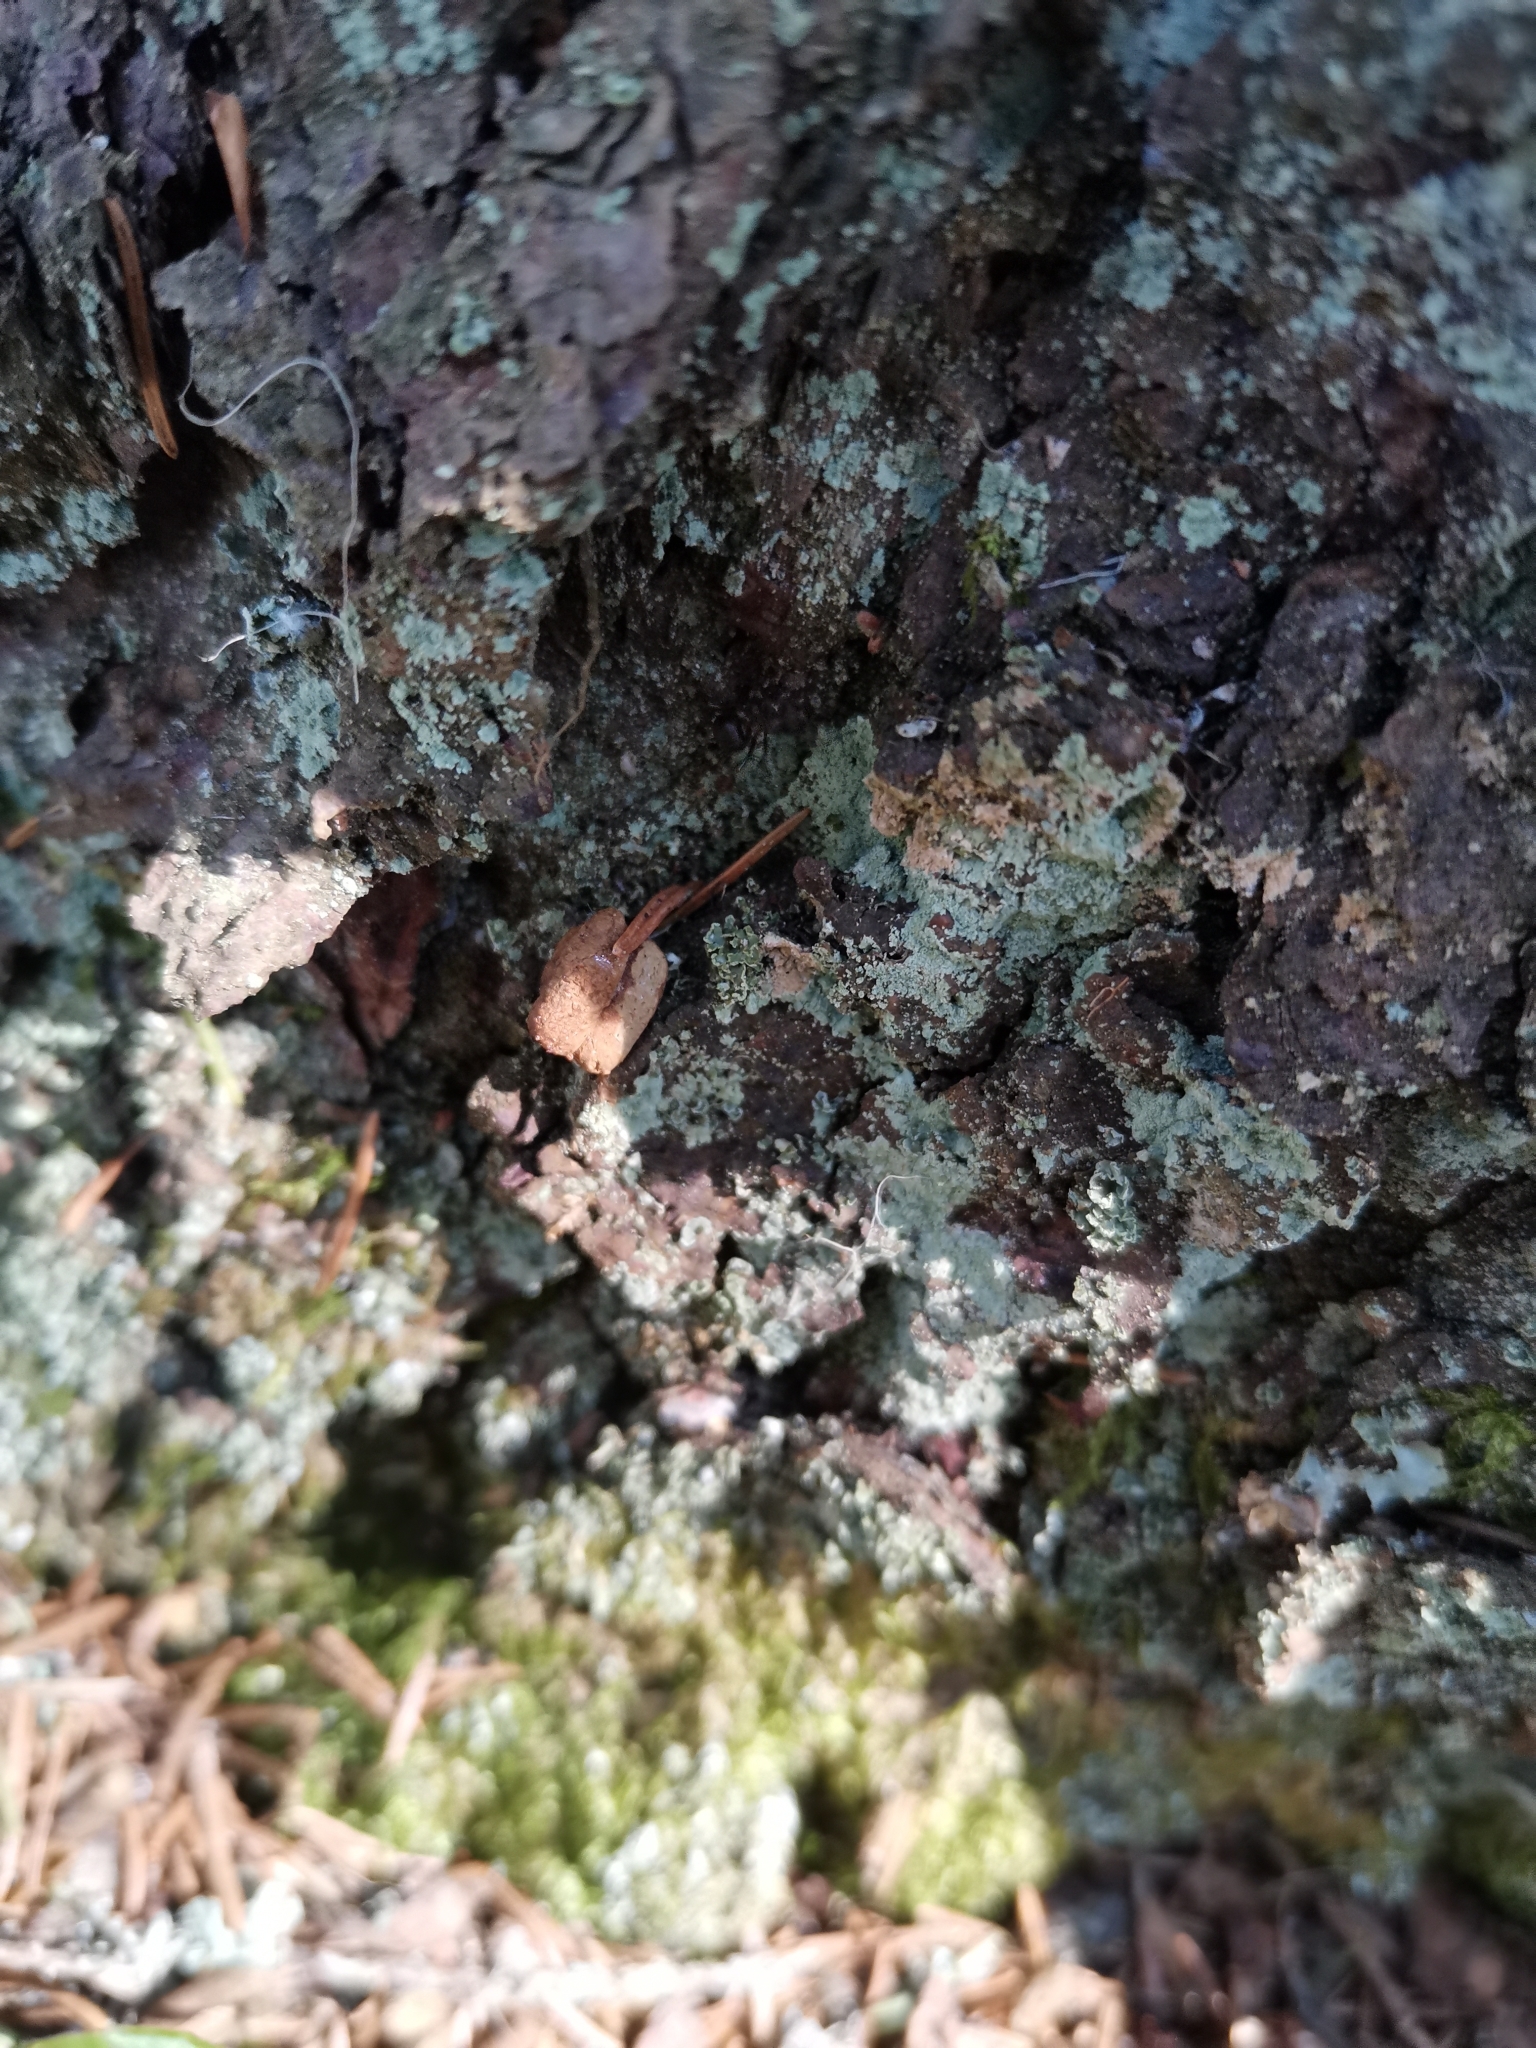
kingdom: Animalia
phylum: Chordata
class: Mammalia
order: Rodentia
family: Sciuridae
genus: Pteromys
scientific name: Pteromys volans
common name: Siberian flying squirrel
